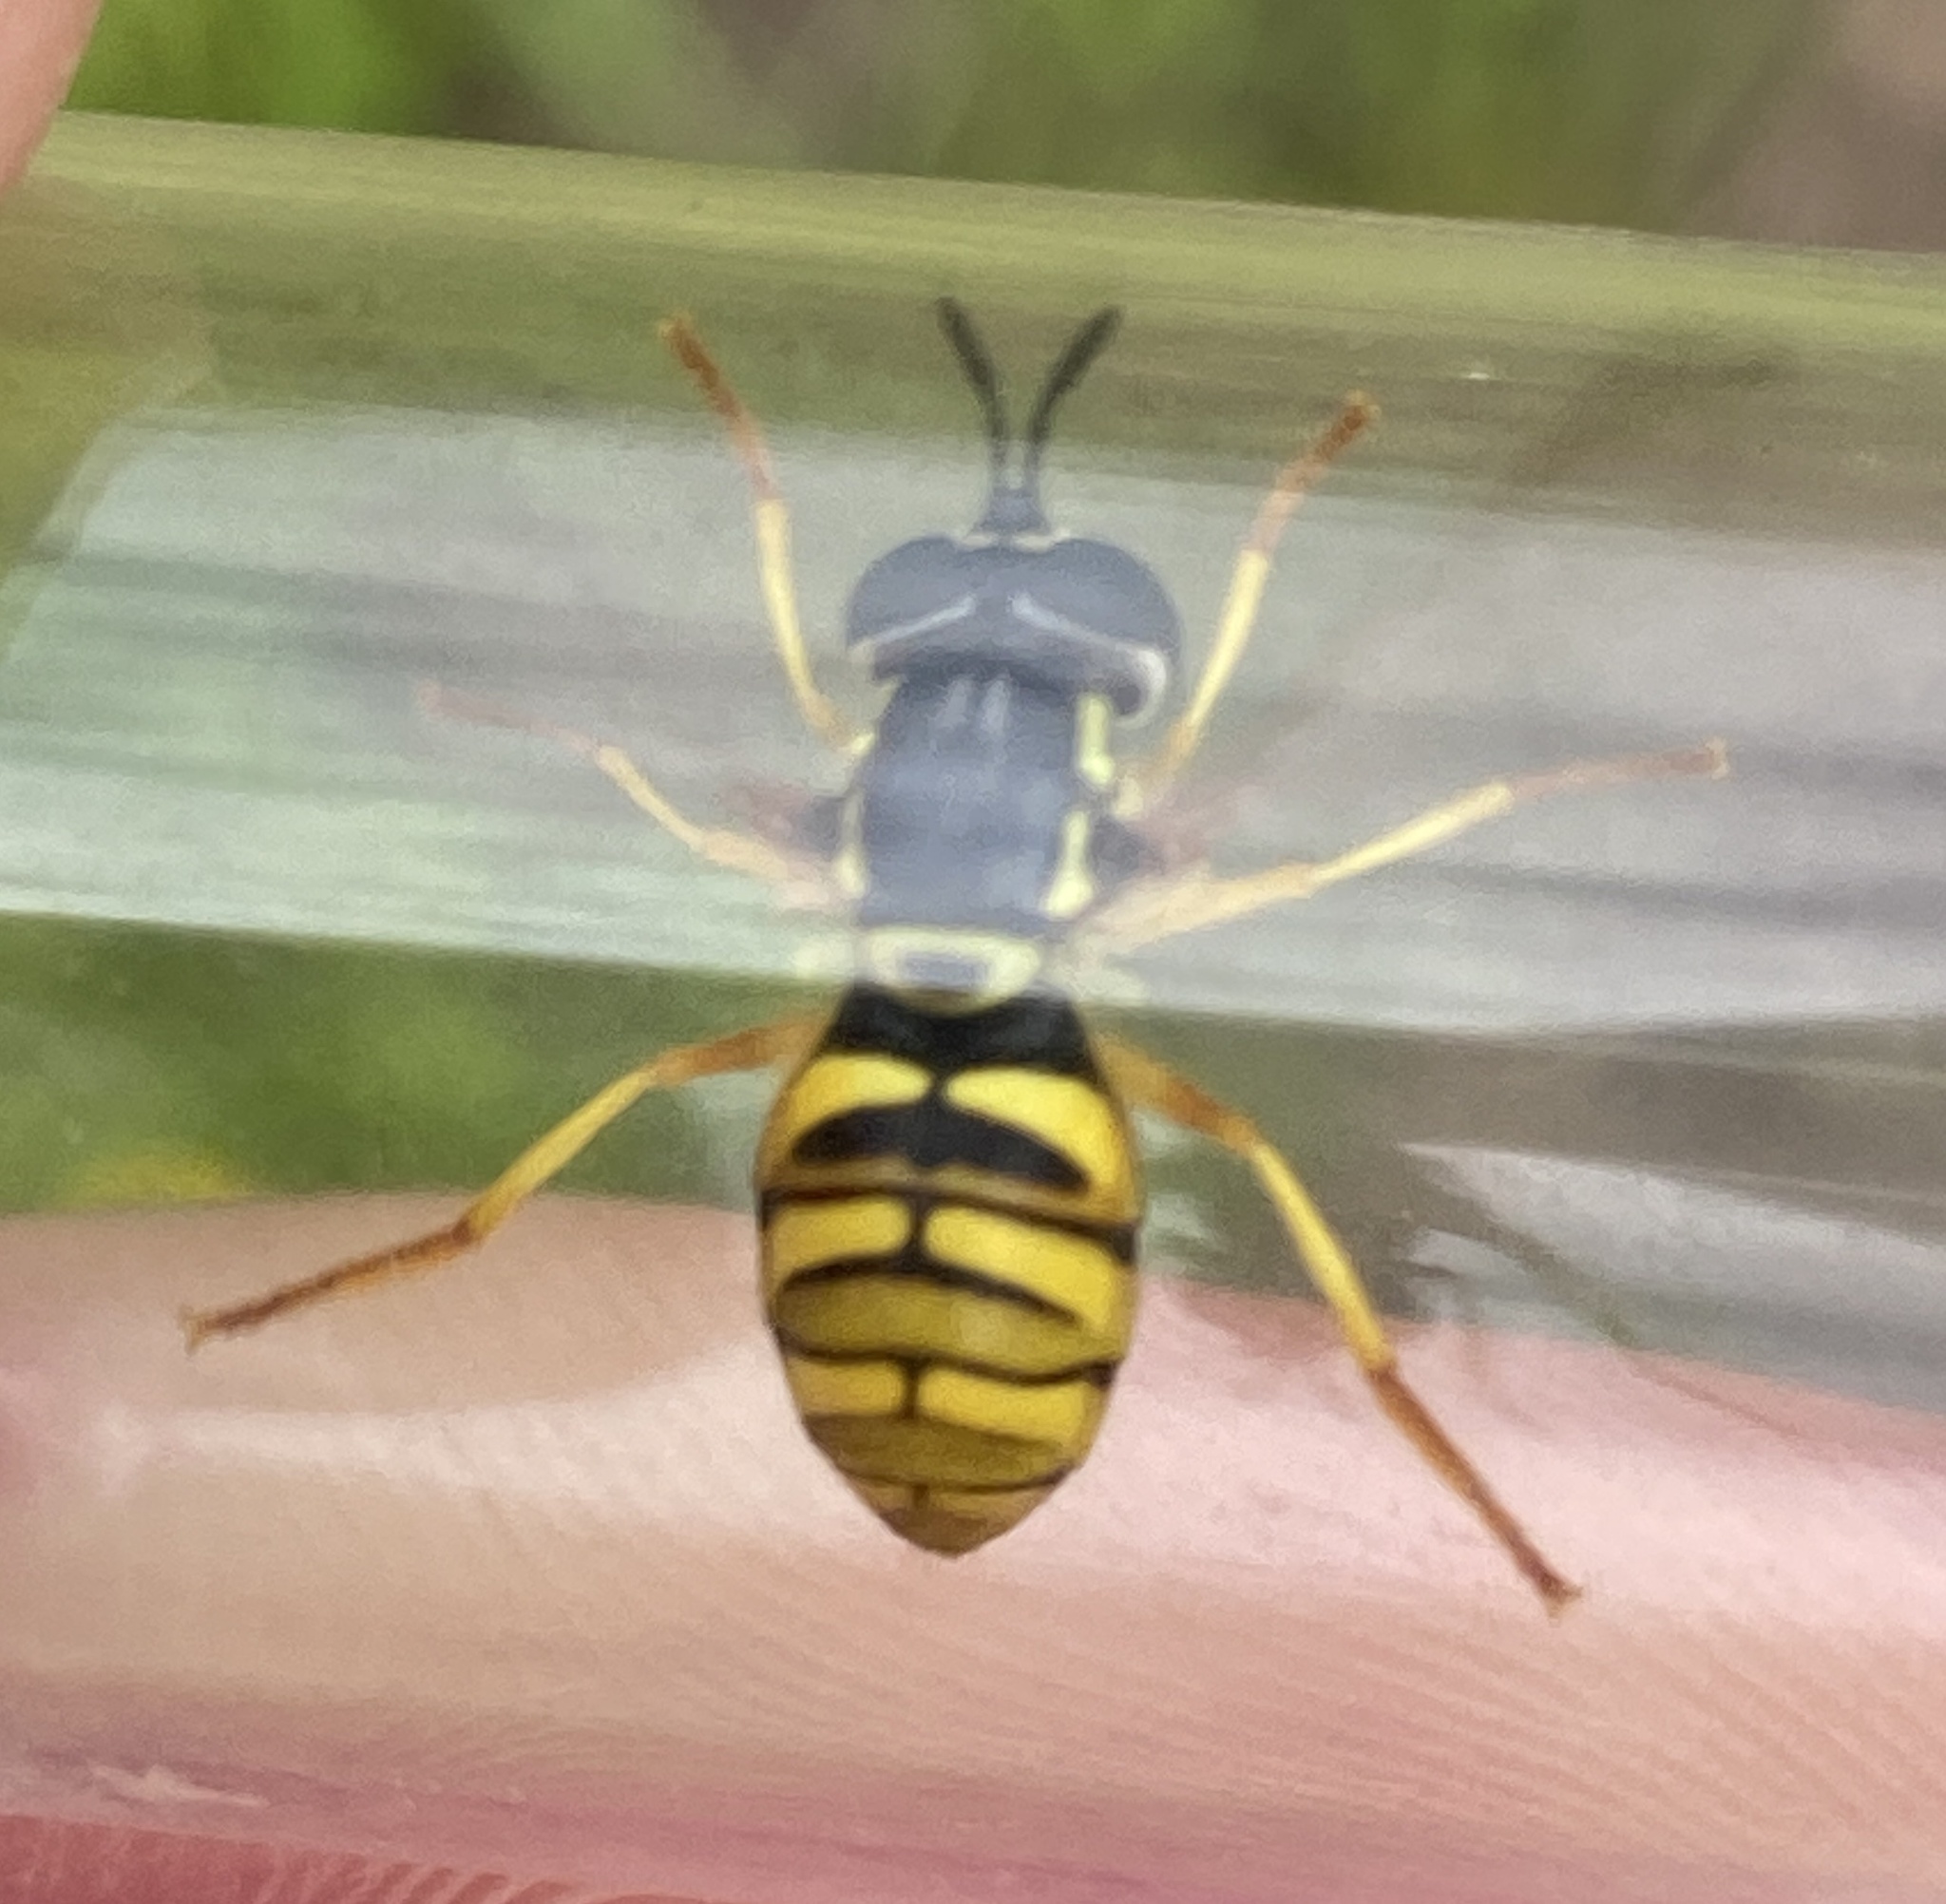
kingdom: Animalia
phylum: Arthropoda
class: Insecta
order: Diptera
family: Syrphidae
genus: Chrysotoxum
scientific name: Chrysotoxum verralli
